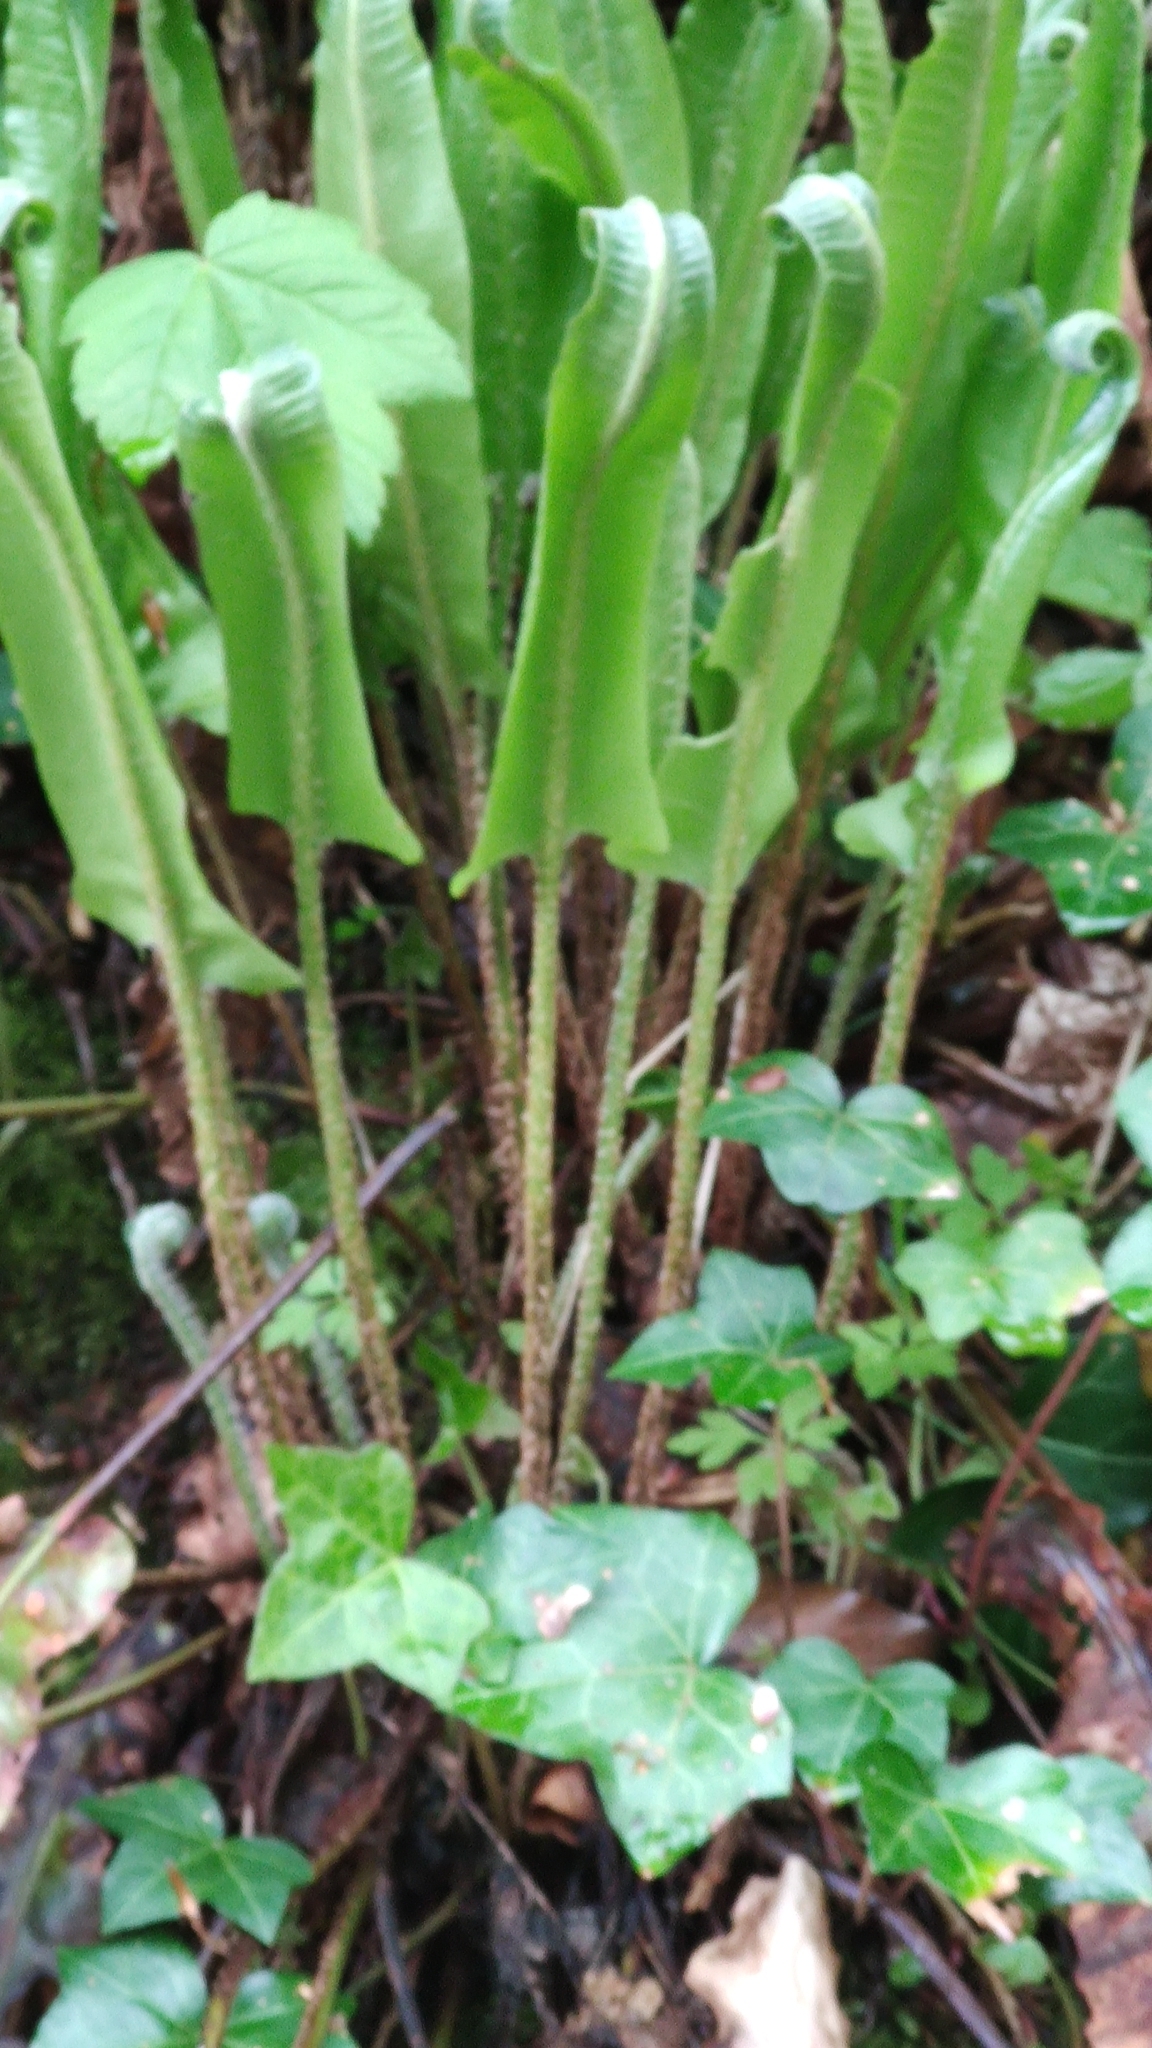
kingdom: Plantae
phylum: Tracheophyta
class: Polypodiopsida
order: Polypodiales
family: Aspleniaceae
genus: Asplenium
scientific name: Asplenium scolopendrium
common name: Hart's-tongue fern
